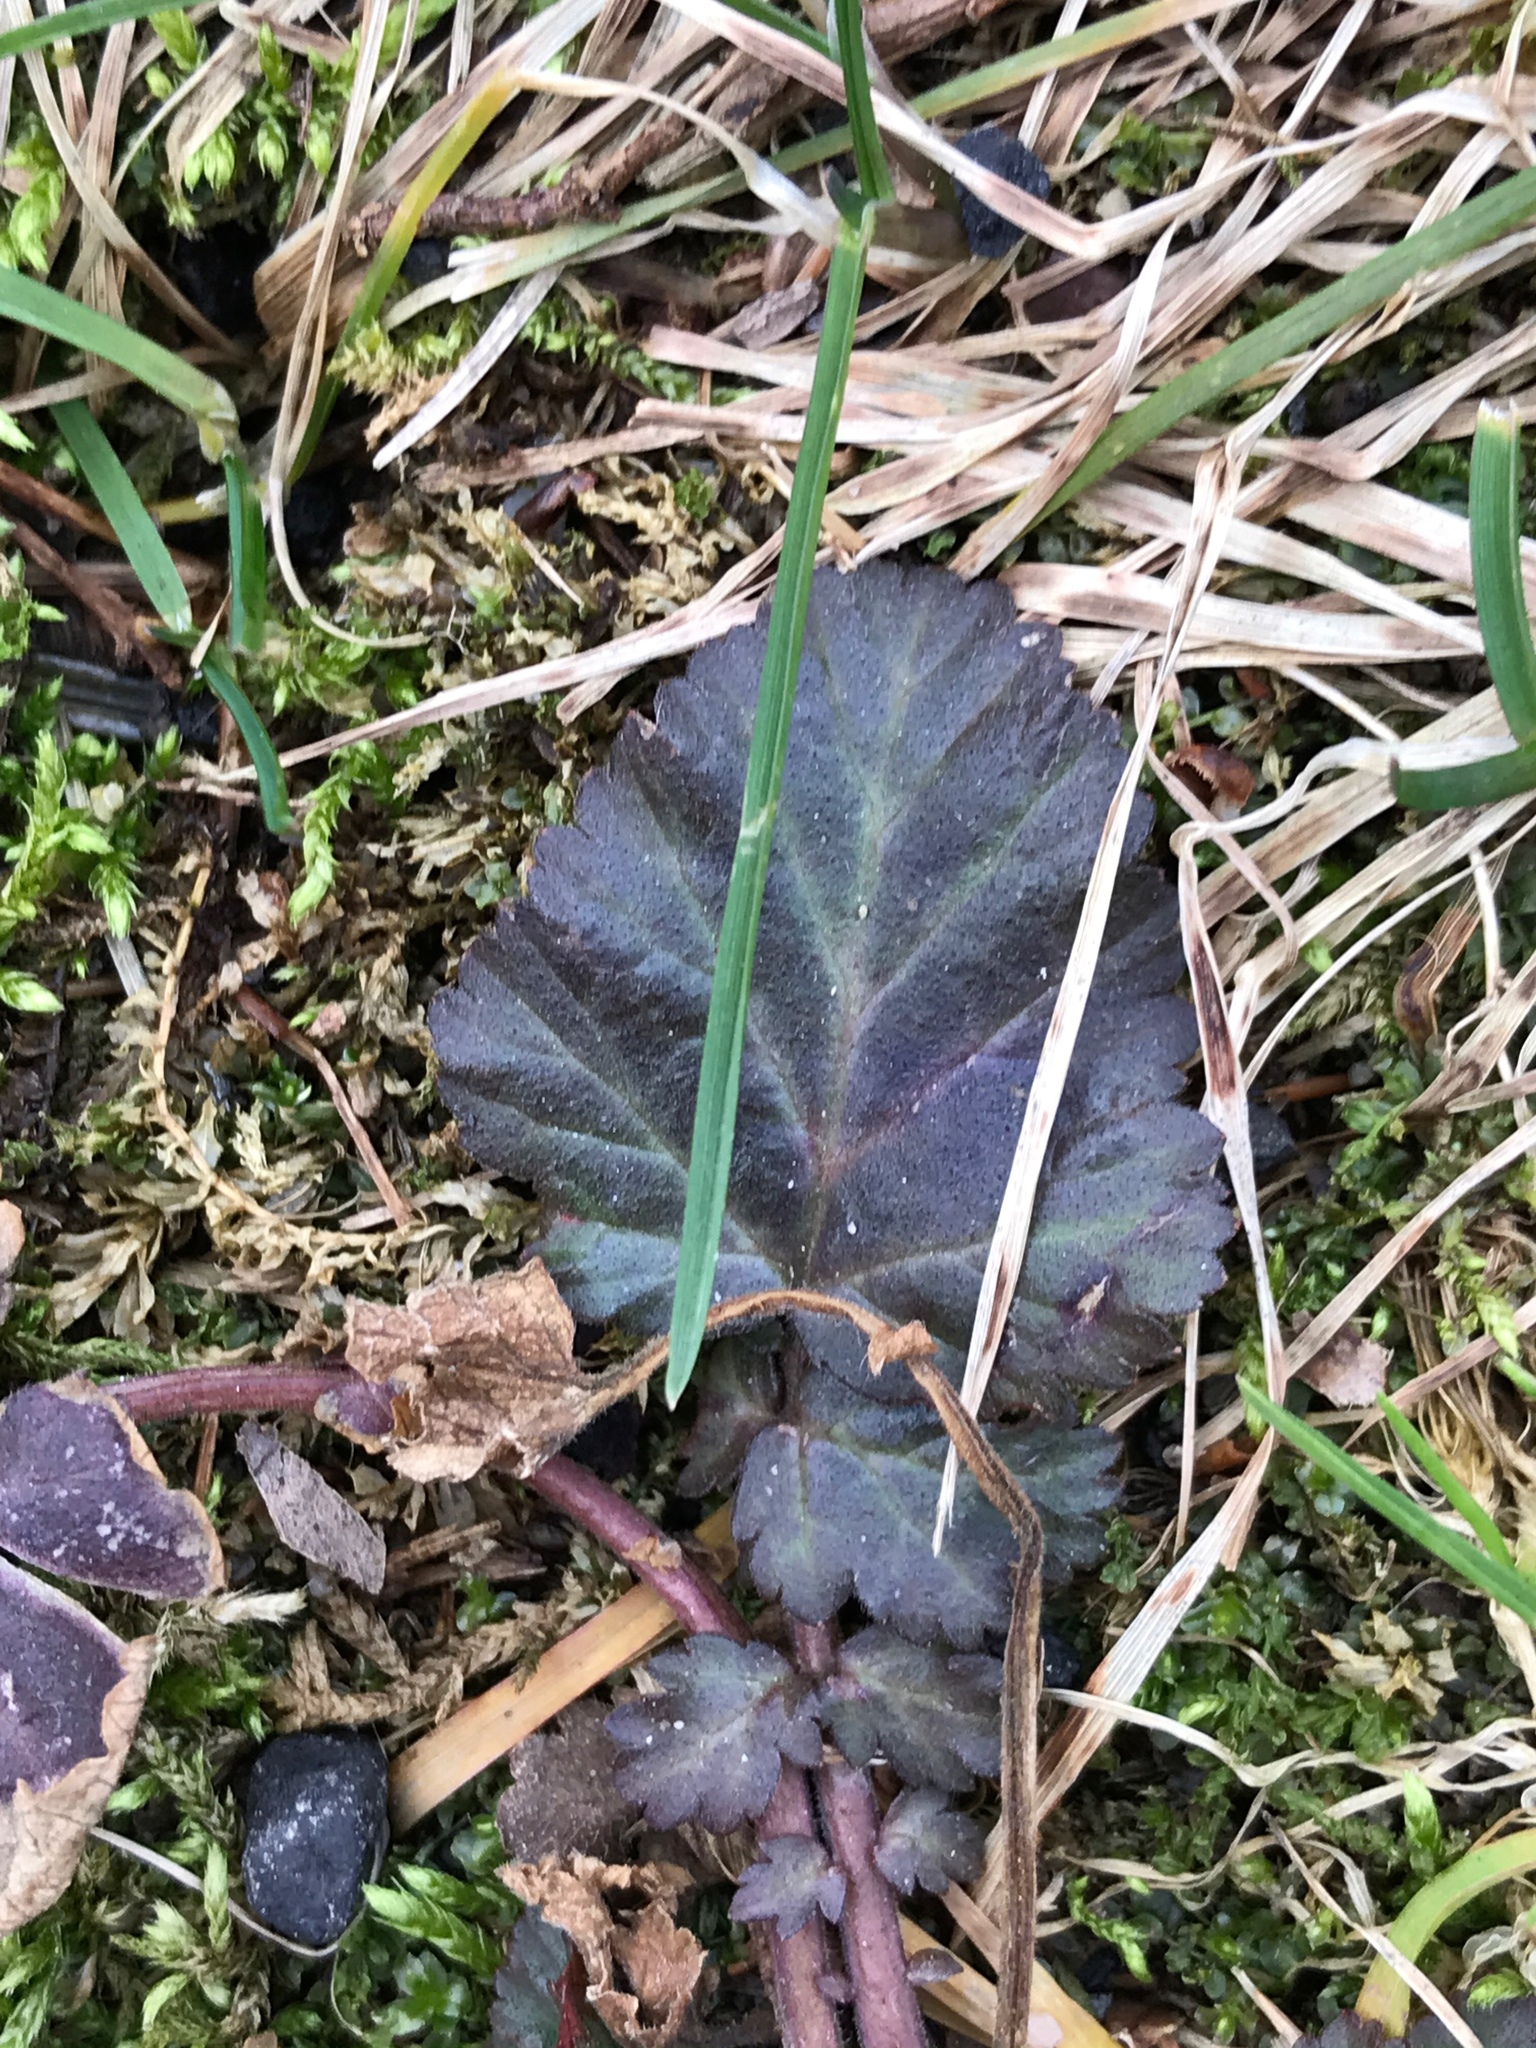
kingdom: Plantae
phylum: Tracheophyta
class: Magnoliopsida
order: Rosales
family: Rosaceae
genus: Geum
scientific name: Geum canadense
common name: White avens
